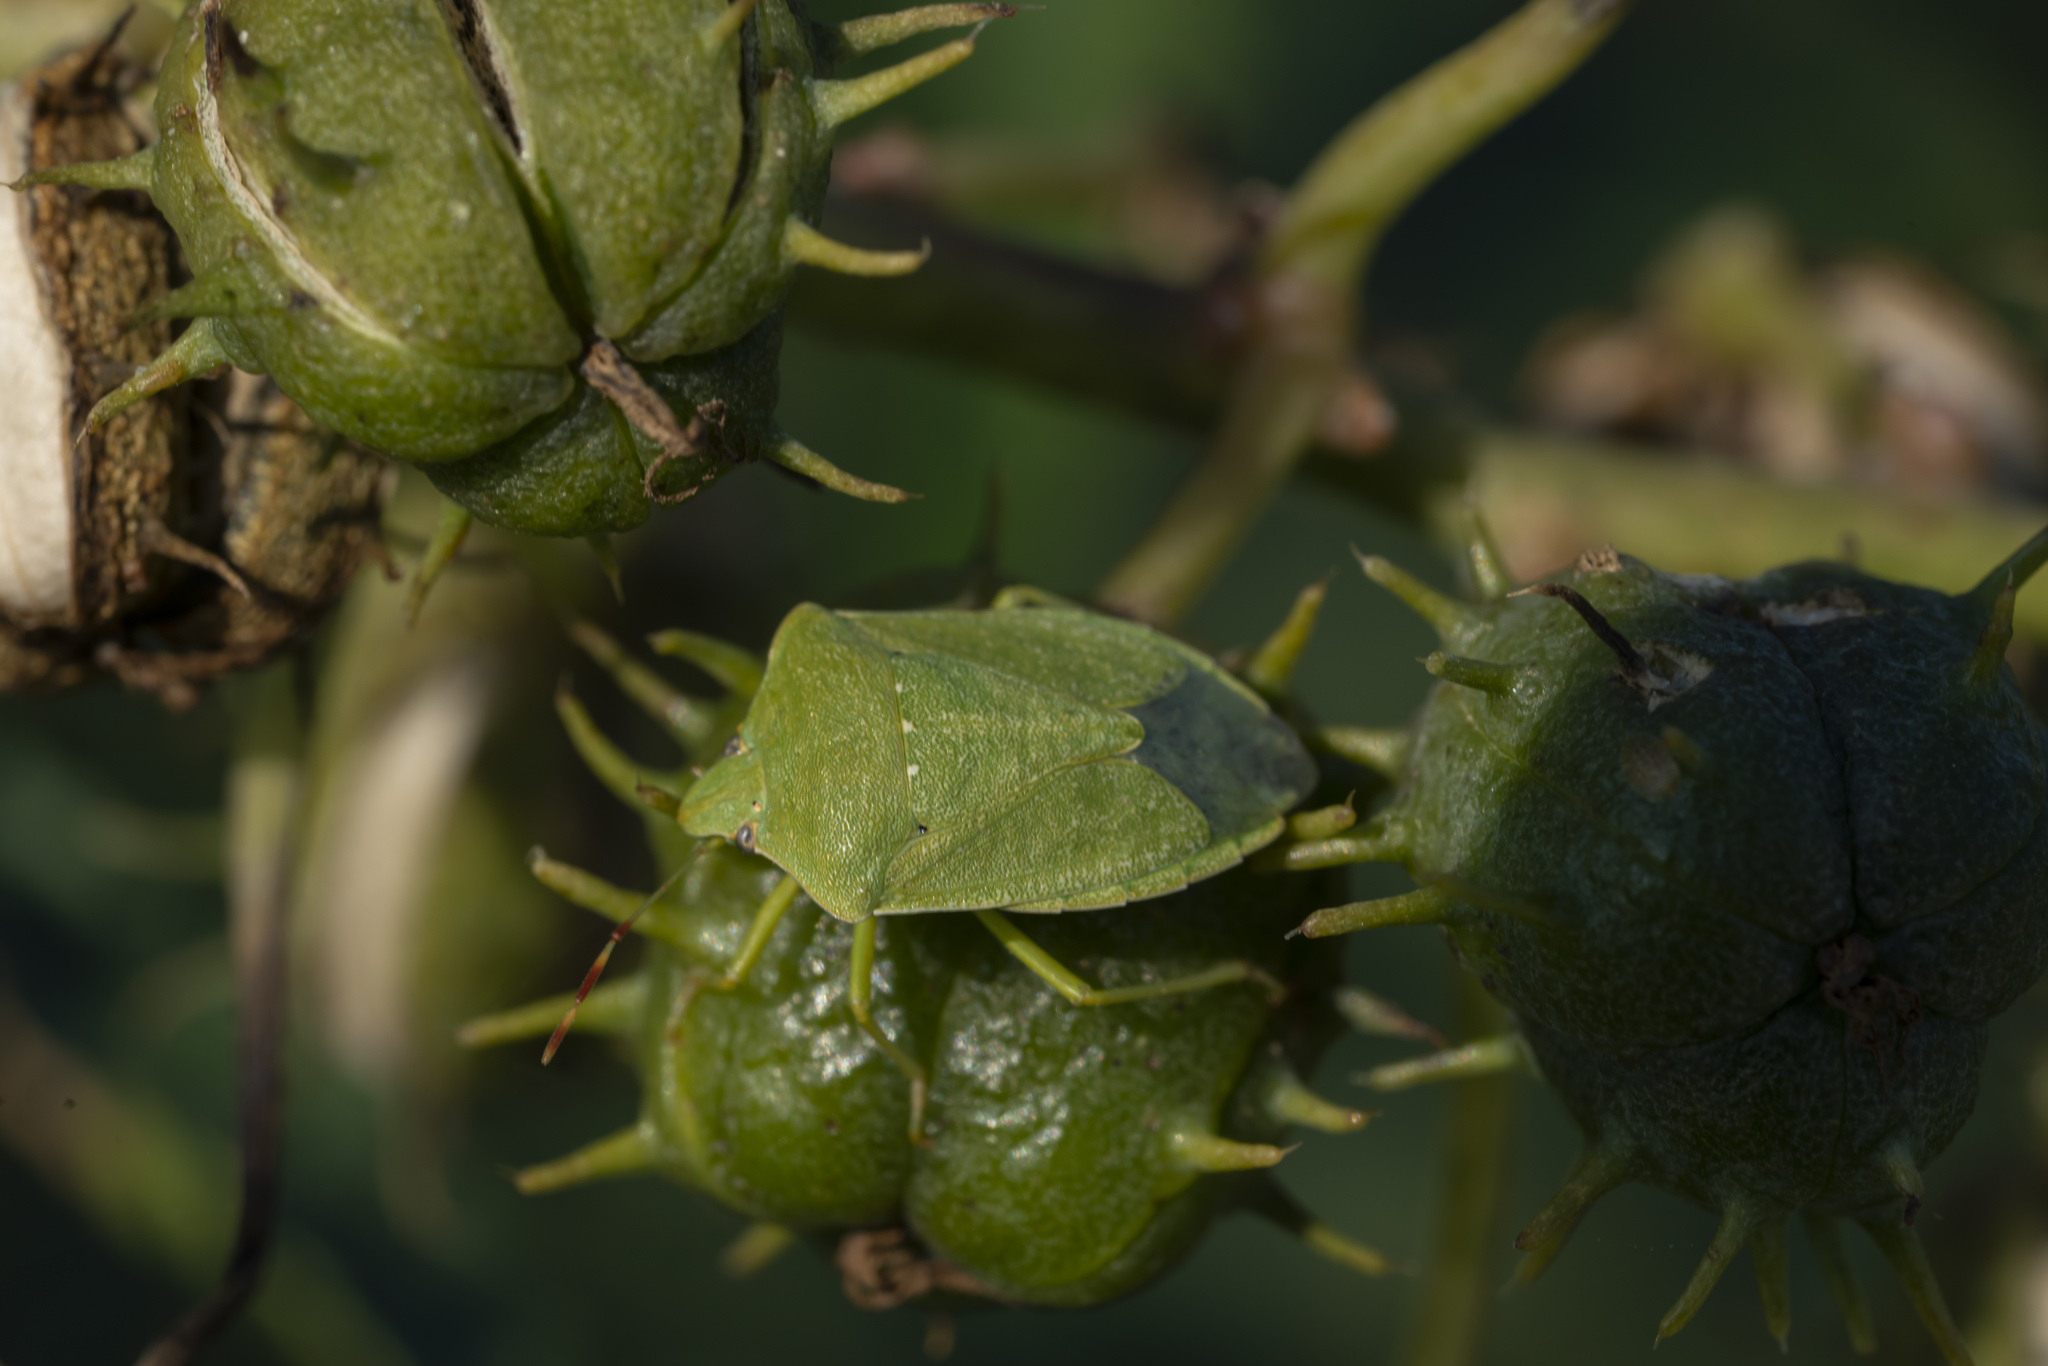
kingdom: Animalia
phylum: Arthropoda
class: Insecta
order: Hemiptera
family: Pentatomidae
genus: Nezara
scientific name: Nezara viridula
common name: Southern green stink bug
